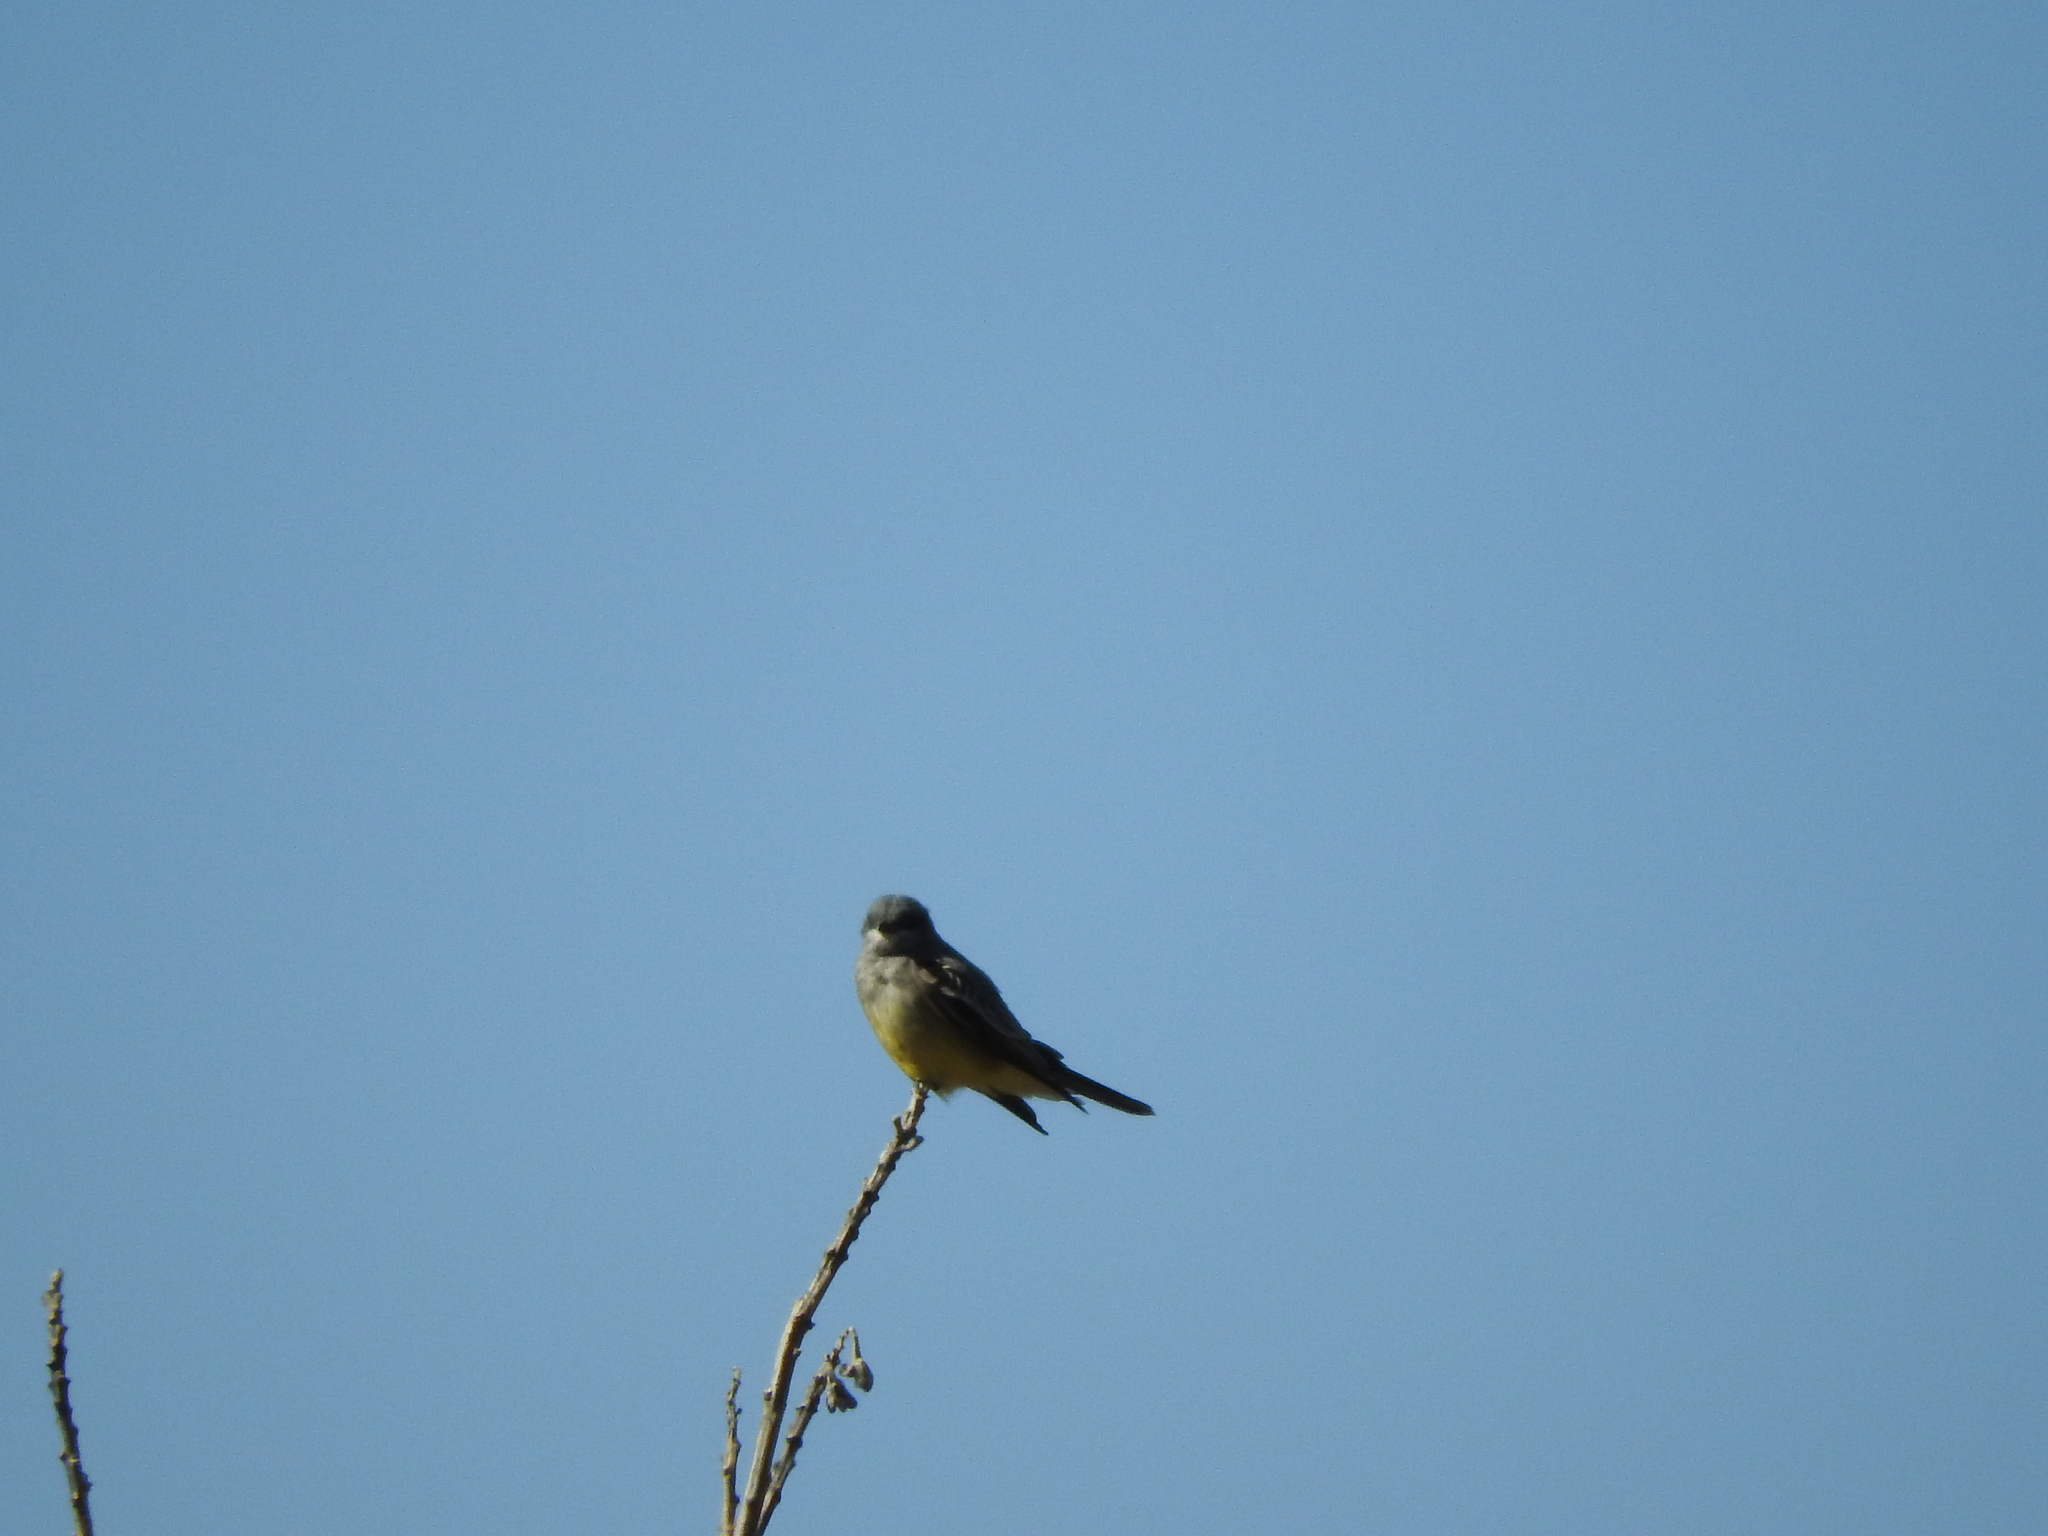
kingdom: Animalia
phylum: Chordata
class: Aves
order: Passeriformes
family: Tyrannidae
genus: Tyrannus
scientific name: Tyrannus vociferans
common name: Cassin's kingbird
